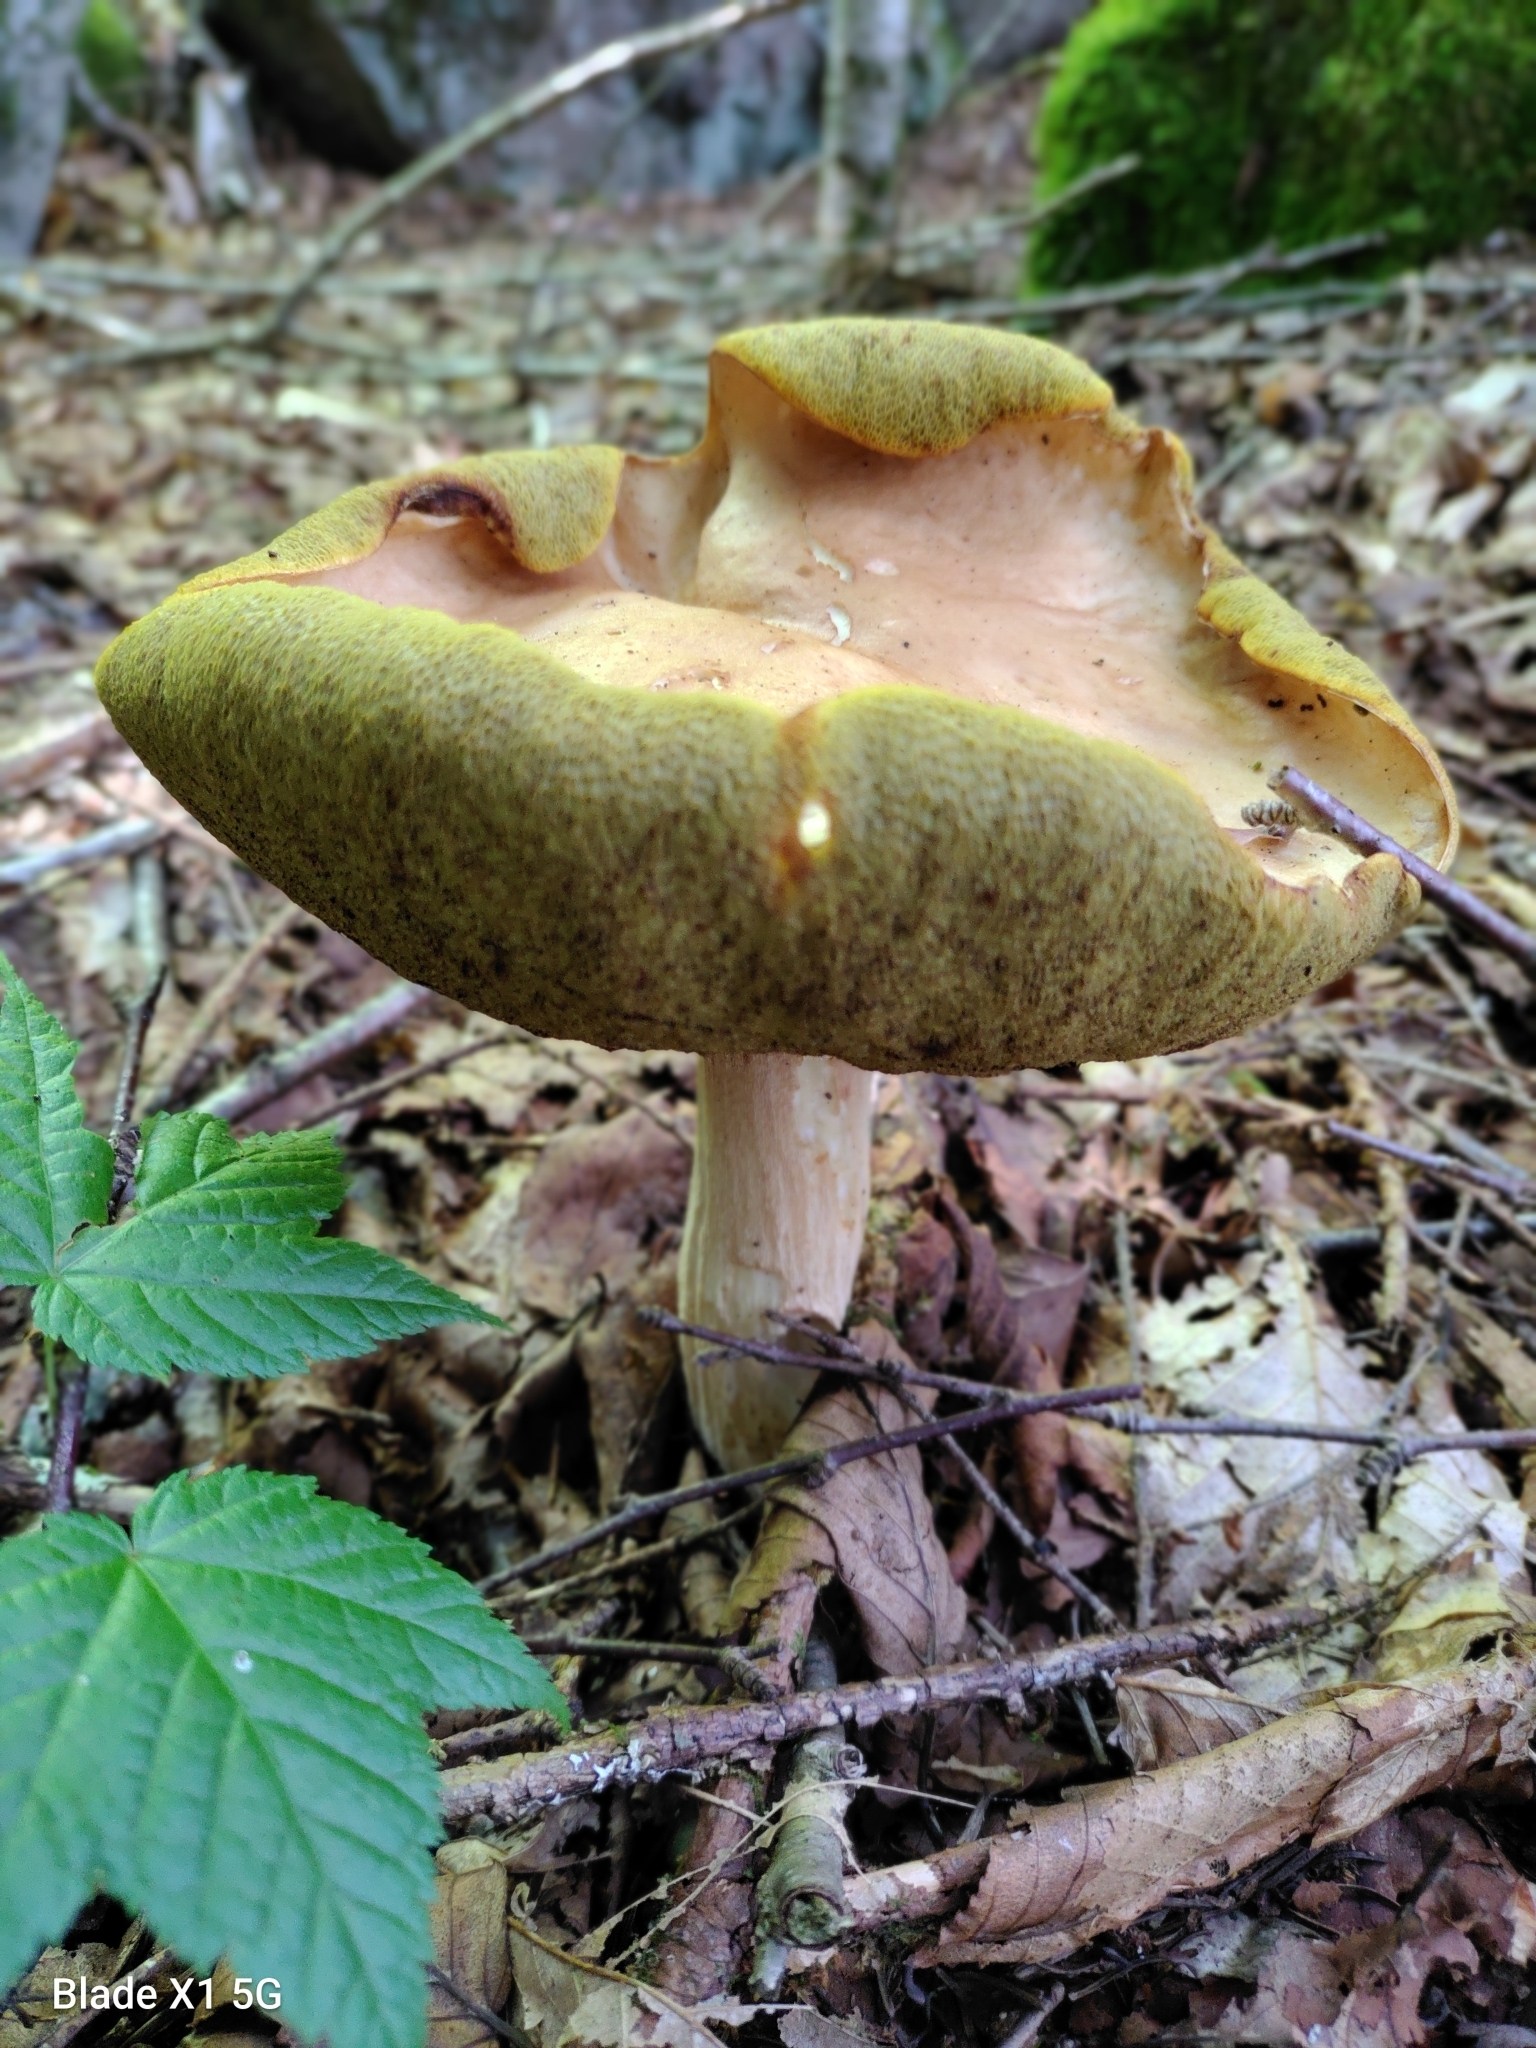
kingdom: Fungi
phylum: Basidiomycota
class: Agaricomycetes
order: Boletales
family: Boletaceae
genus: Boletus
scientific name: Boletus chippewaensis
